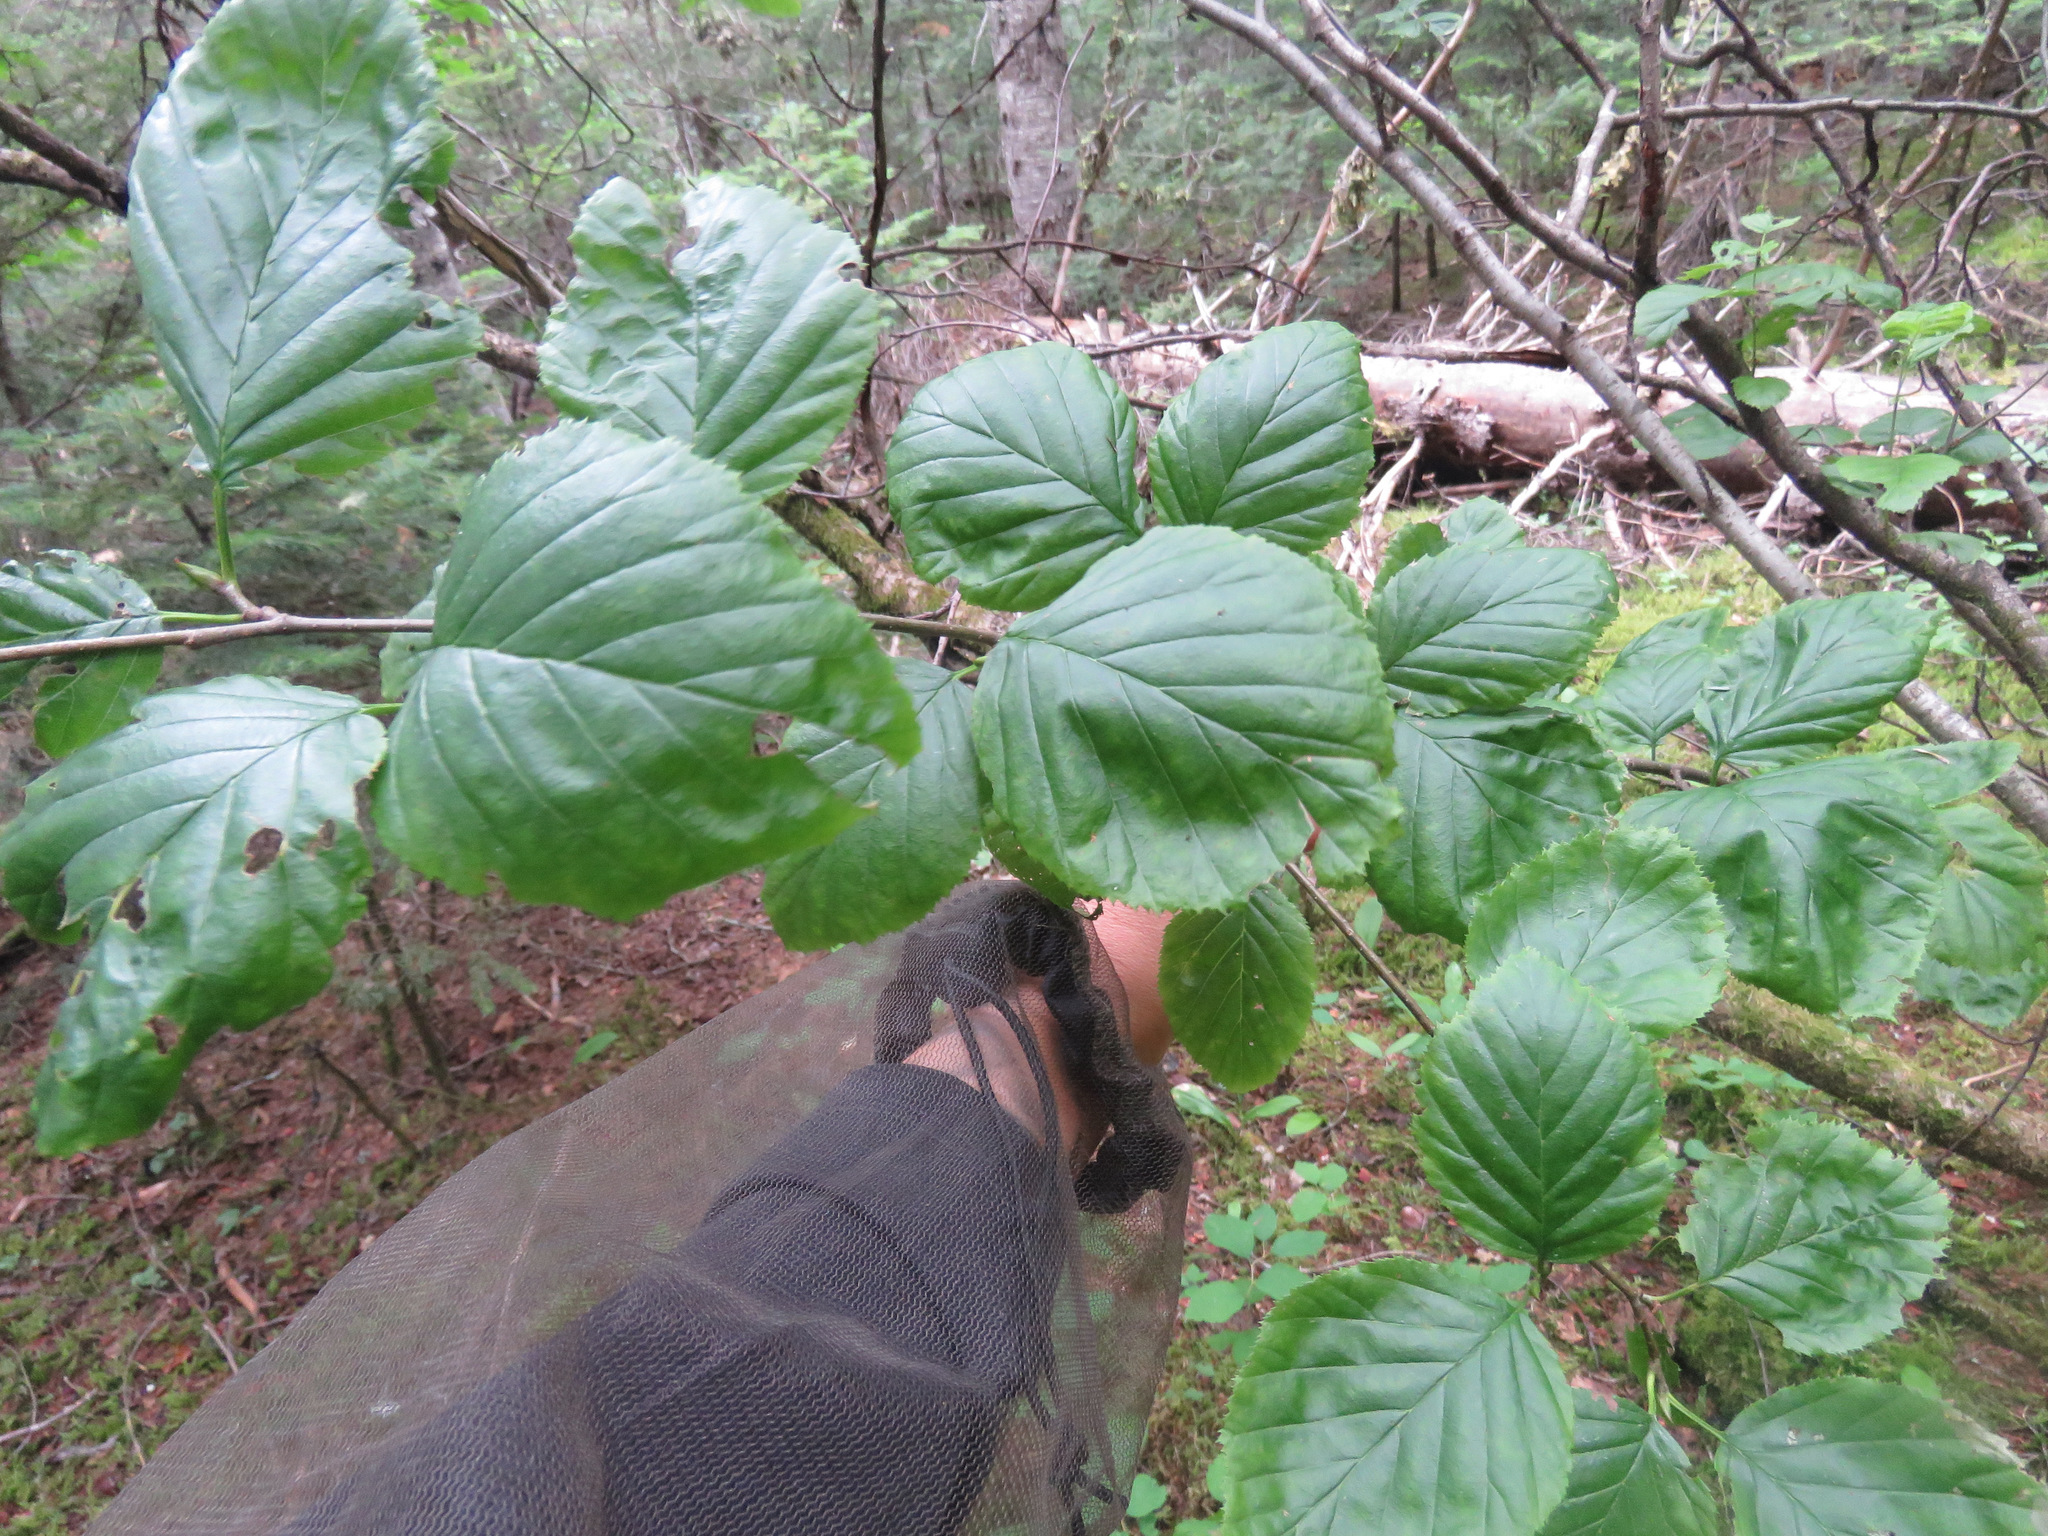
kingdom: Plantae
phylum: Tracheophyta
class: Magnoliopsida
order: Fagales
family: Betulaceae
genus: Alnus
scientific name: Alnus alnobetula
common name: Green alder
